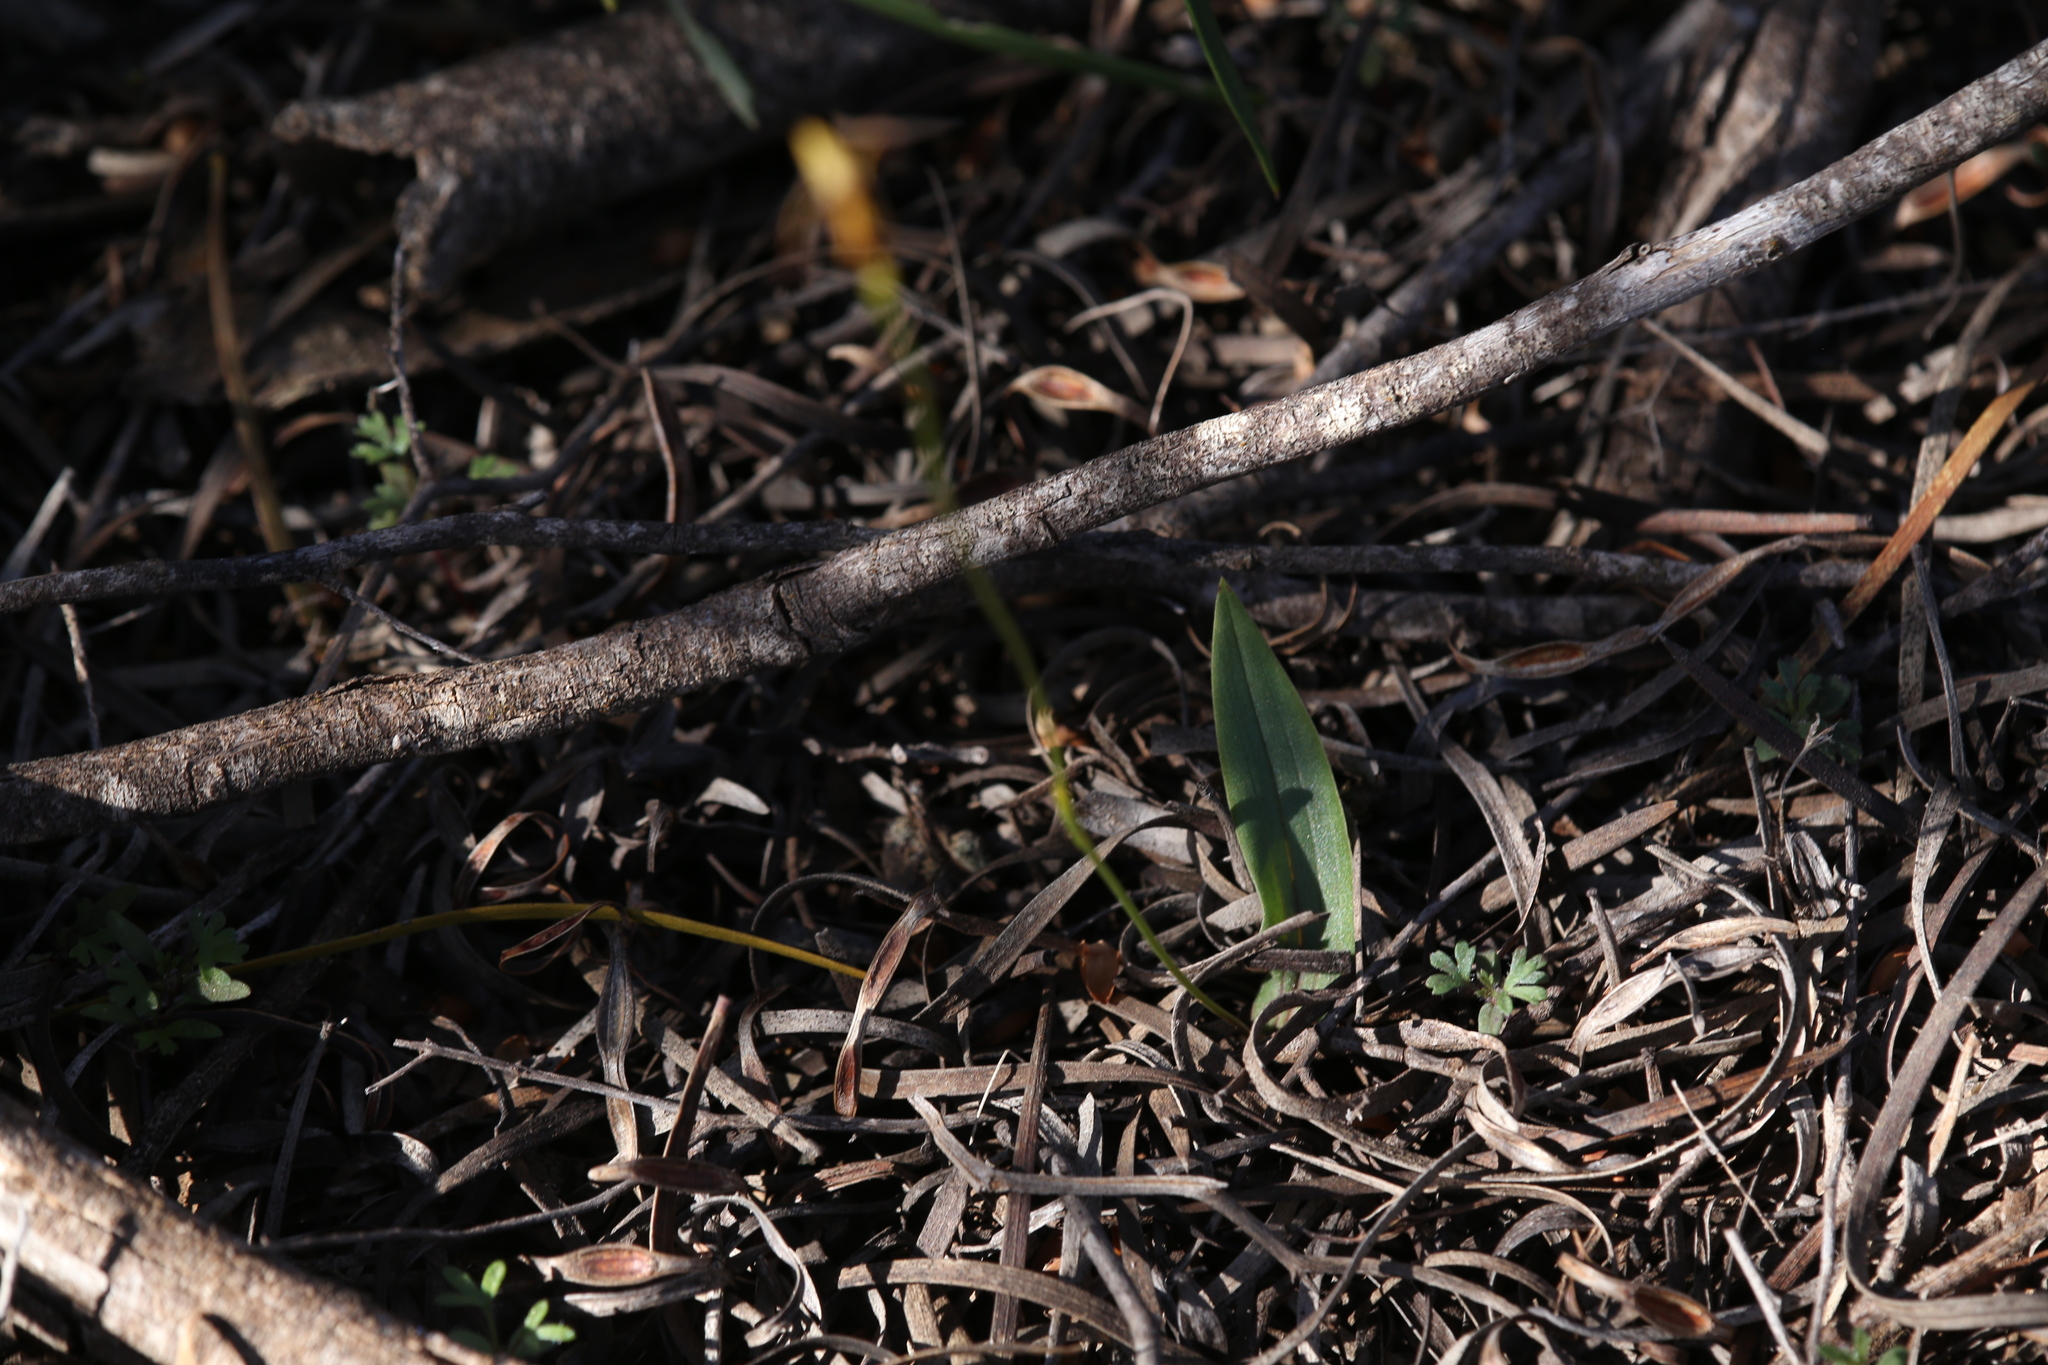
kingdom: Plantae
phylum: Tracheophyta
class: Liliopsida
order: Asparagales
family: Orchidaceae
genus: Leporella
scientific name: Leporella fimbriata
